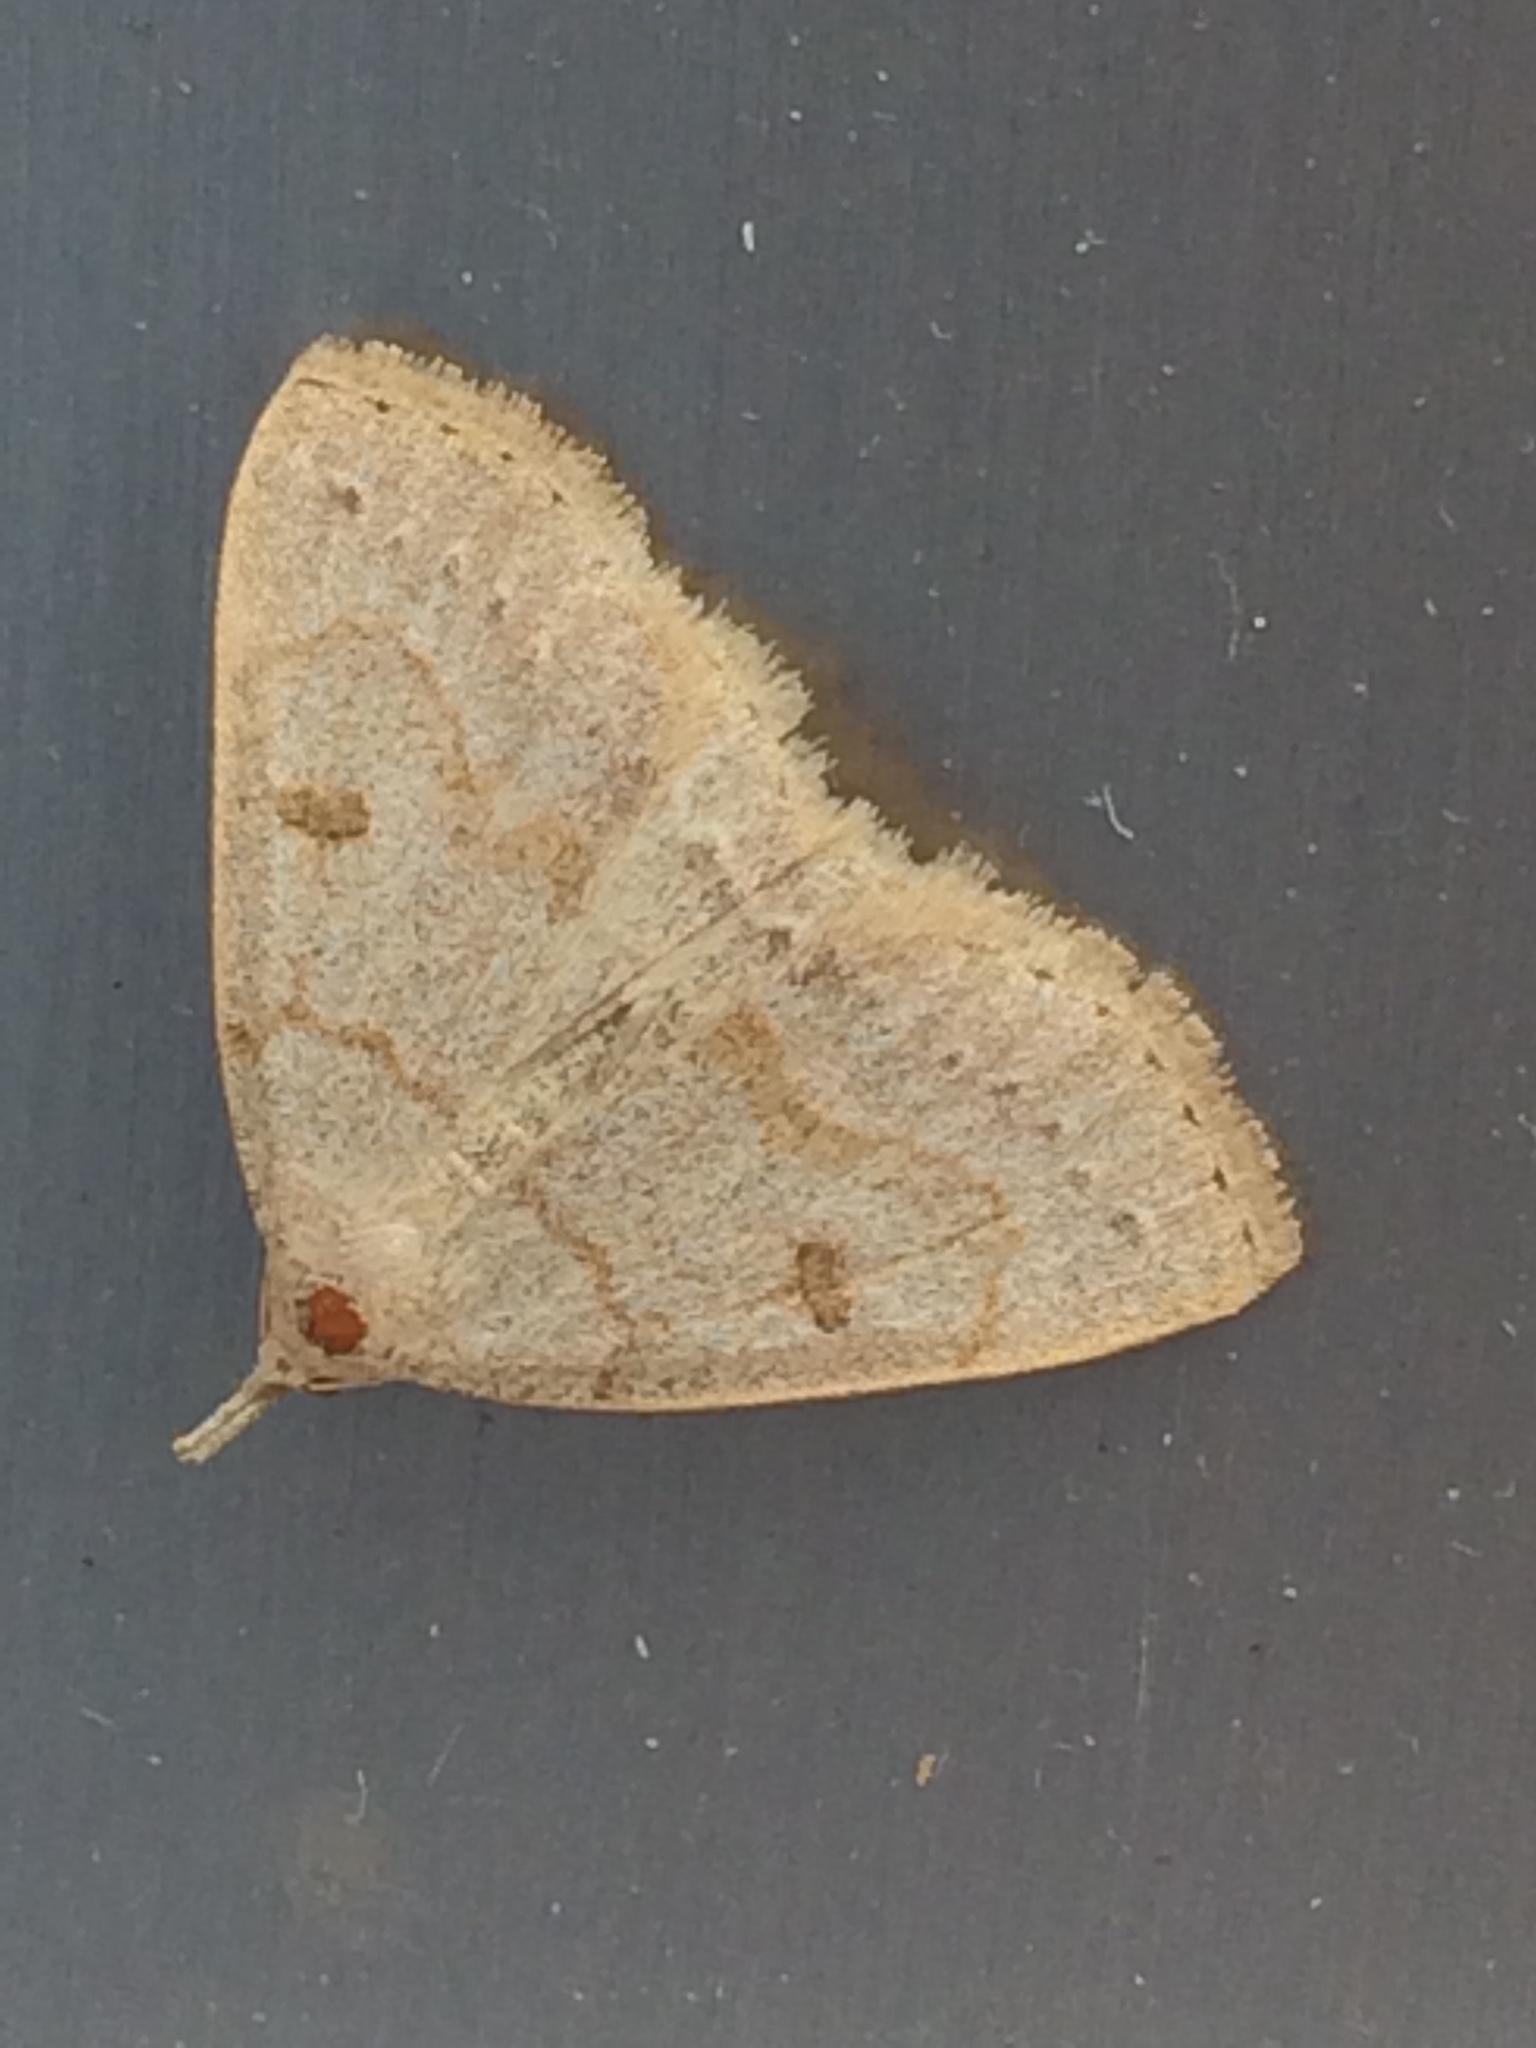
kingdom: Animalia
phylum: Arthropoda
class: Insecta
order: Lepidoptera
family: Erebidae
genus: Macrochilo
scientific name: Macrochilo morbidalis
